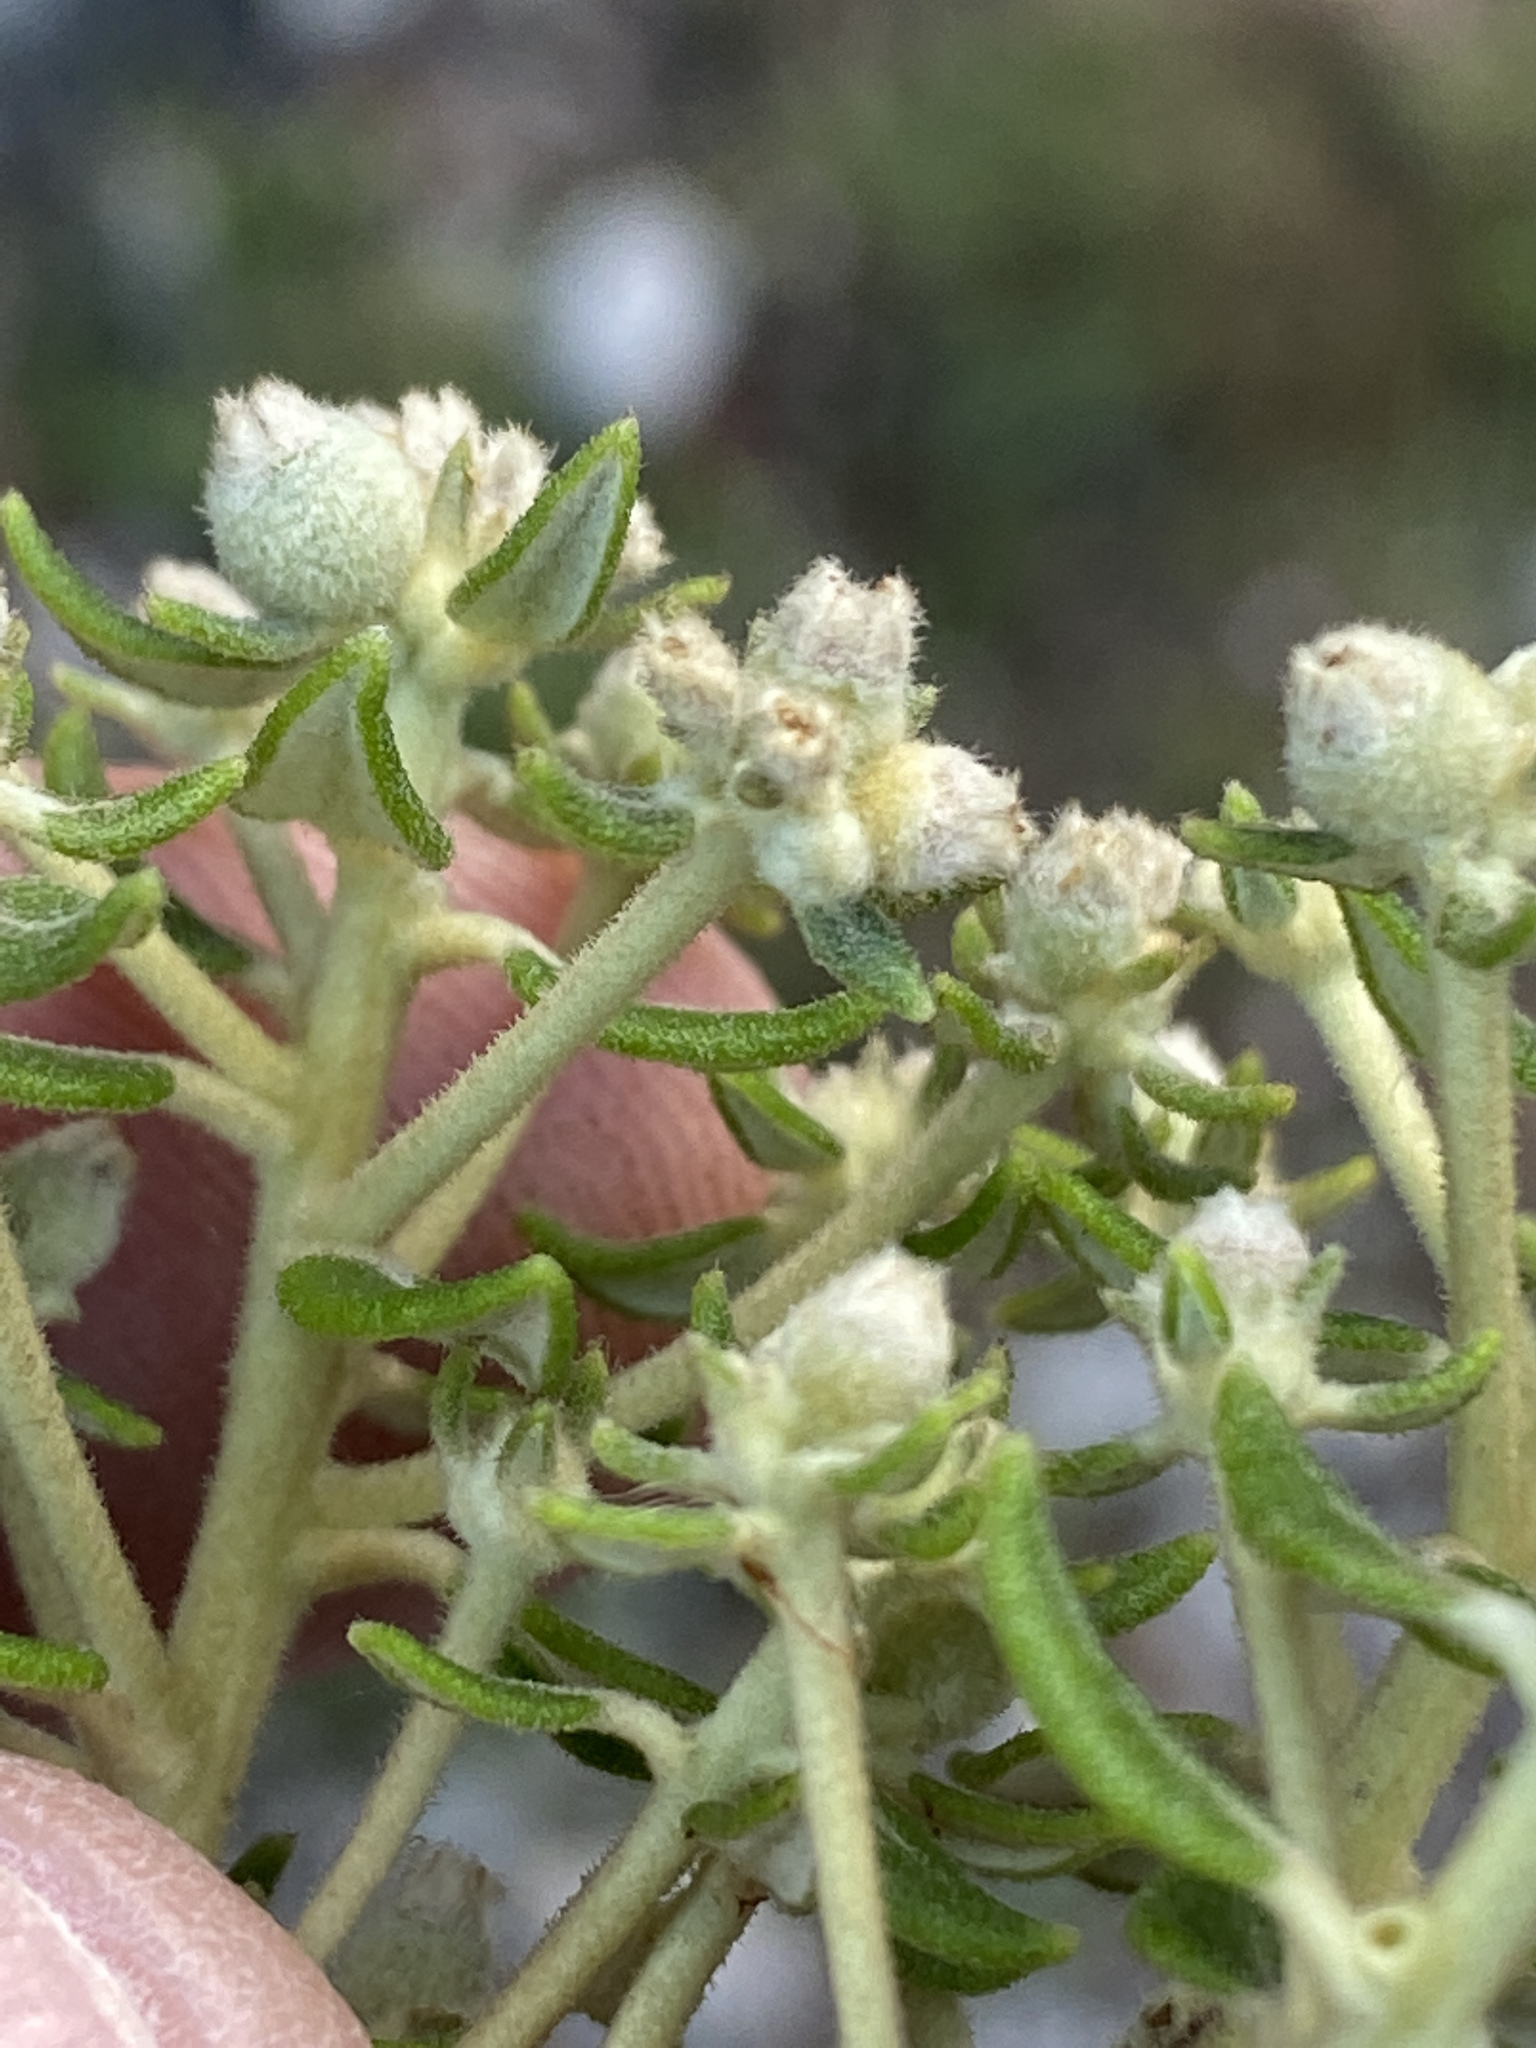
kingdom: Plantae
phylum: Tracheophyta
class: Magnoliopsida
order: Rosales
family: Rhamnaceae
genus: Phylica
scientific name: Phylica buxifolia
